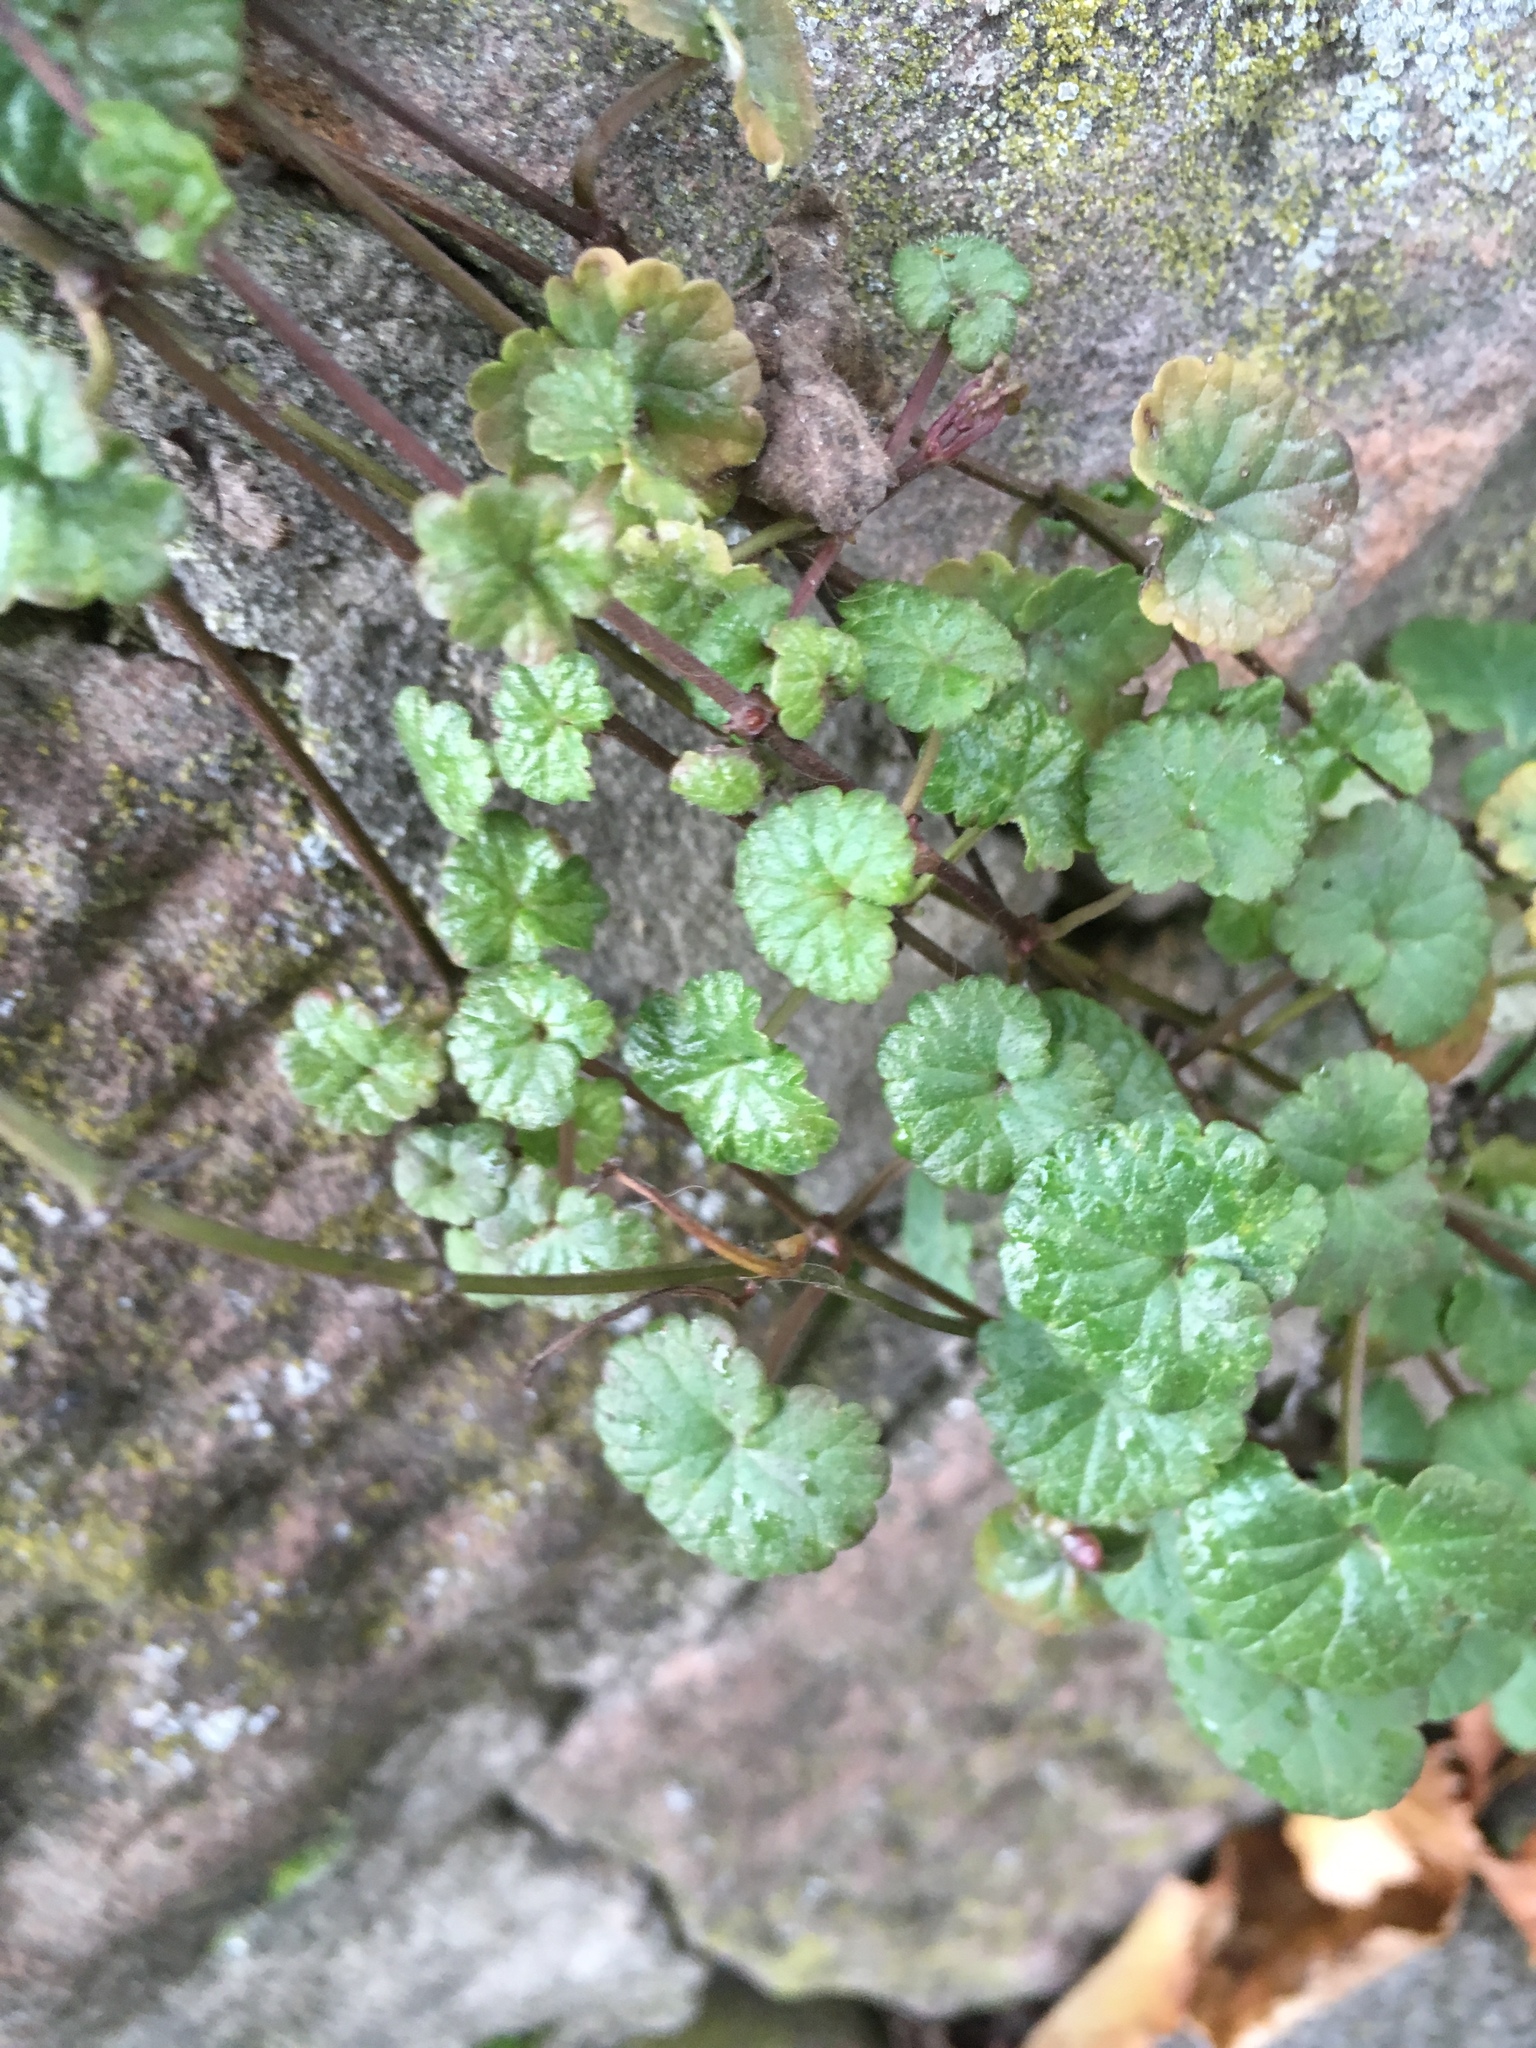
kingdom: Plantae
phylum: Tracheophyta
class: Magnoliopsida
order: Lamiales
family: Lamiaceae
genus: Glechoma
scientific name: Glechoma hederacea
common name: Ground ivy
